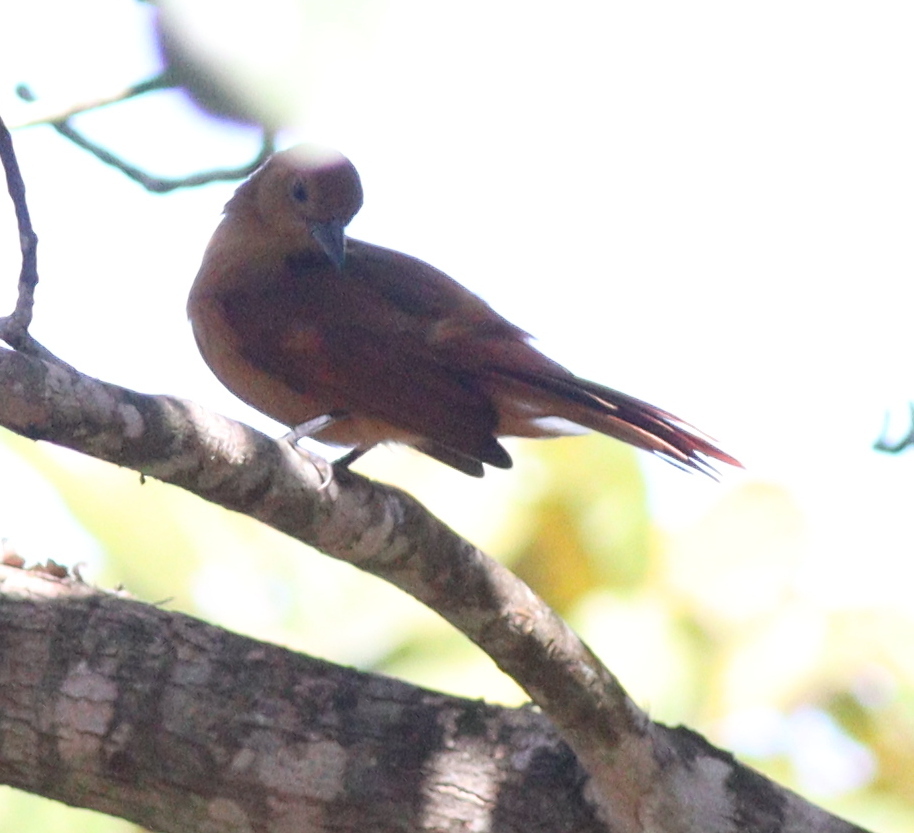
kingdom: Animalia
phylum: Chordata
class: Aves
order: Passeriformes
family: Thraupidae
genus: Tachyphonus
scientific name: Tachyphonus rufus
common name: White-lined tanager
